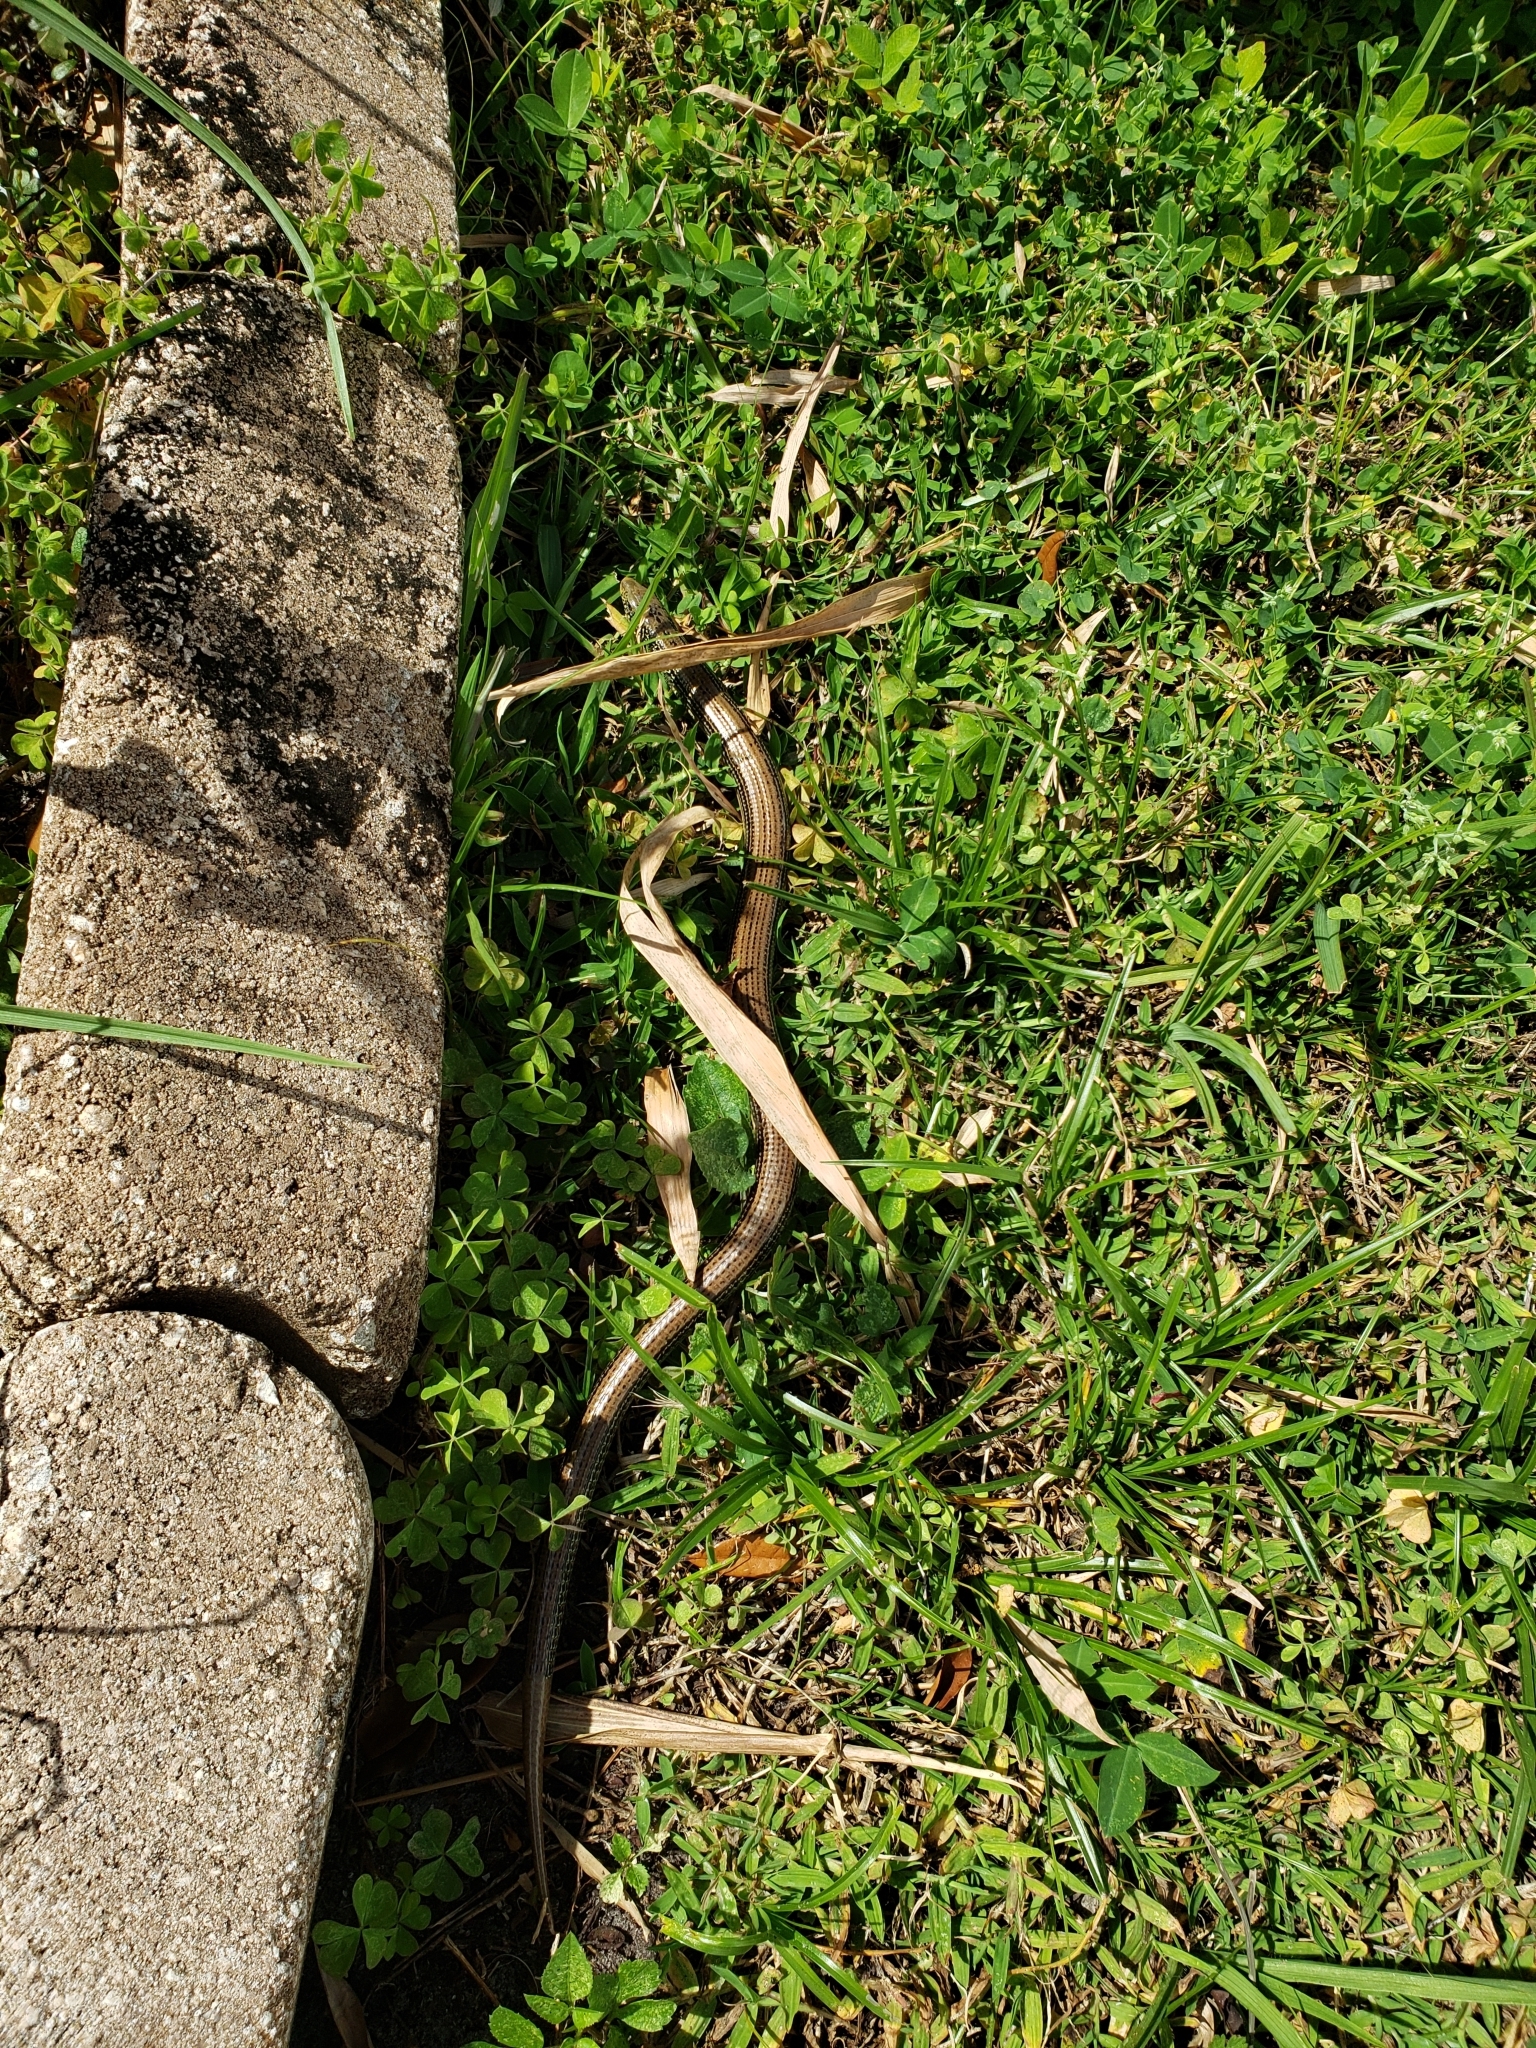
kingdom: Animalia
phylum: Chordata
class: Squamata
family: Anguidae
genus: Ophisaurus
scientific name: Ophisaurus ventralis
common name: Eastern glass lizard
